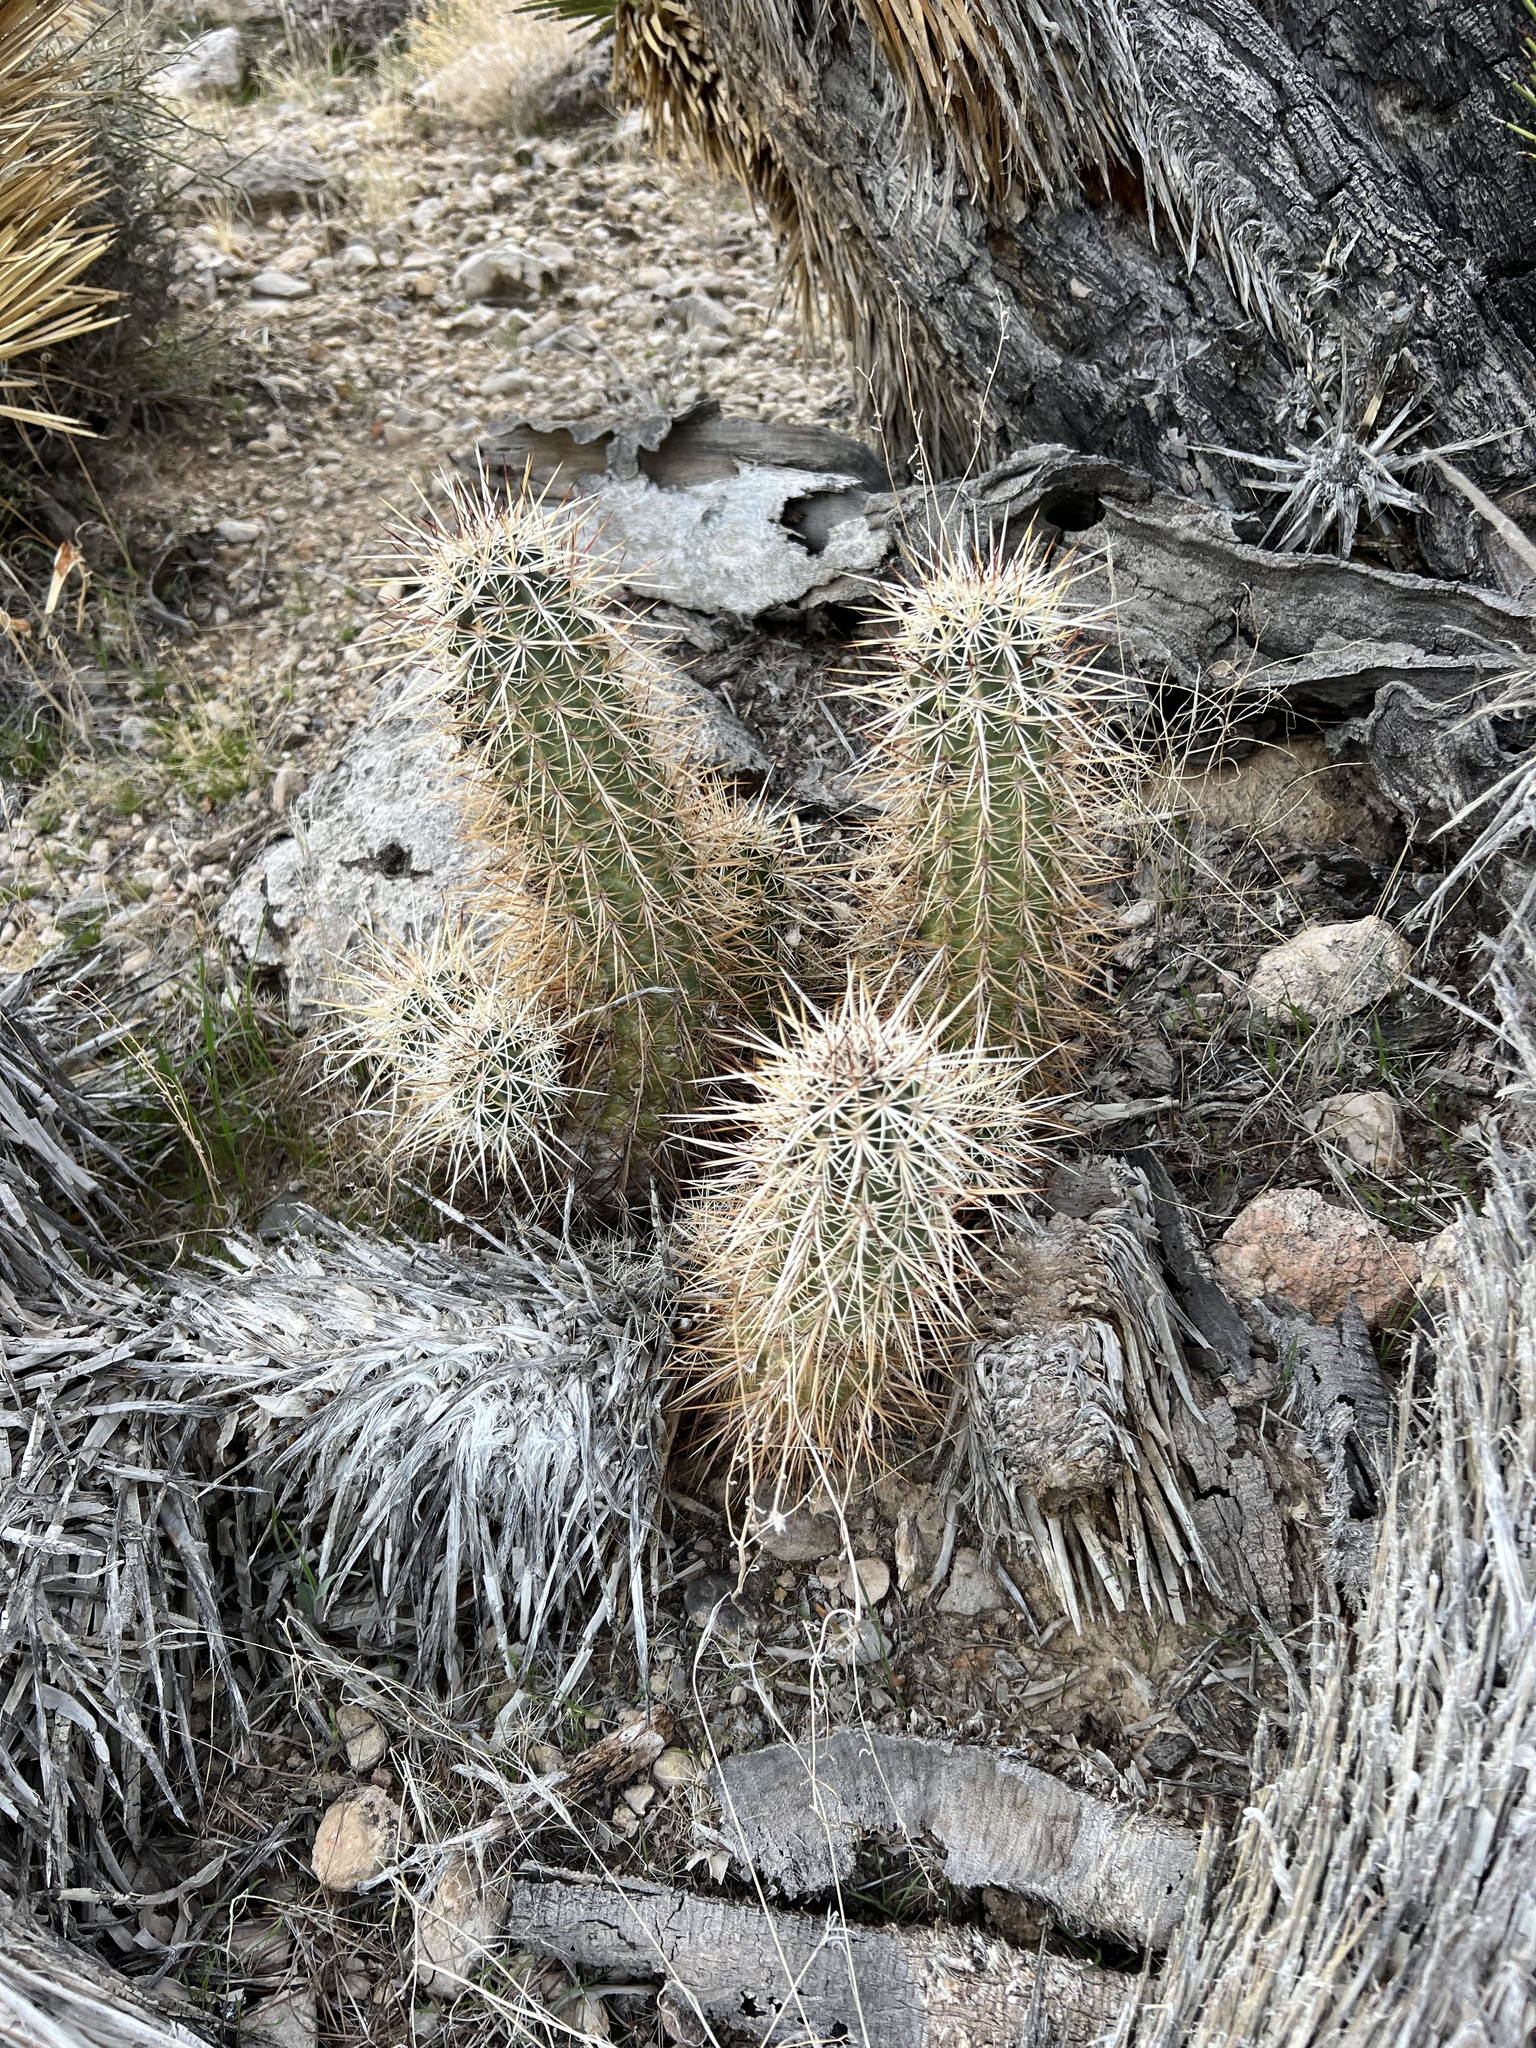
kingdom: Plantae
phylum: Tracheophyta
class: Magnoliopsida
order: Caryophyllales
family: Cactaceae
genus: Echinocereus
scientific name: Echinocereus engelmannii
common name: Engelmann's hedgehog cactus
